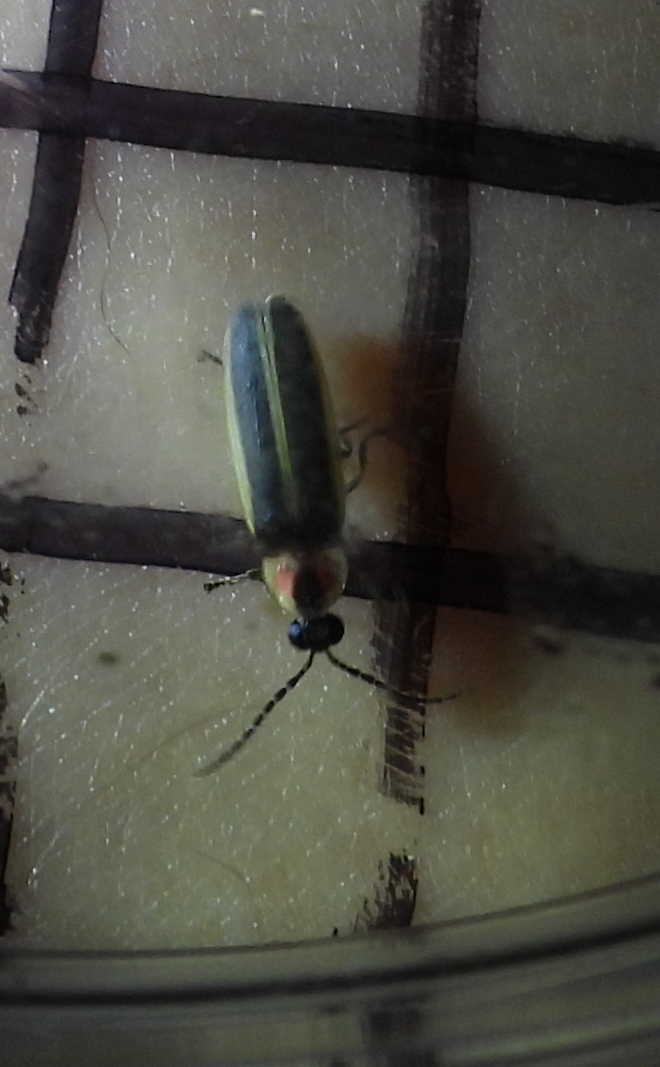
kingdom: Animalia
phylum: Arthropoda
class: Insecta
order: Coleoptera
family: Lampyridae
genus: Photinus
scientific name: Photinus sabulosus
